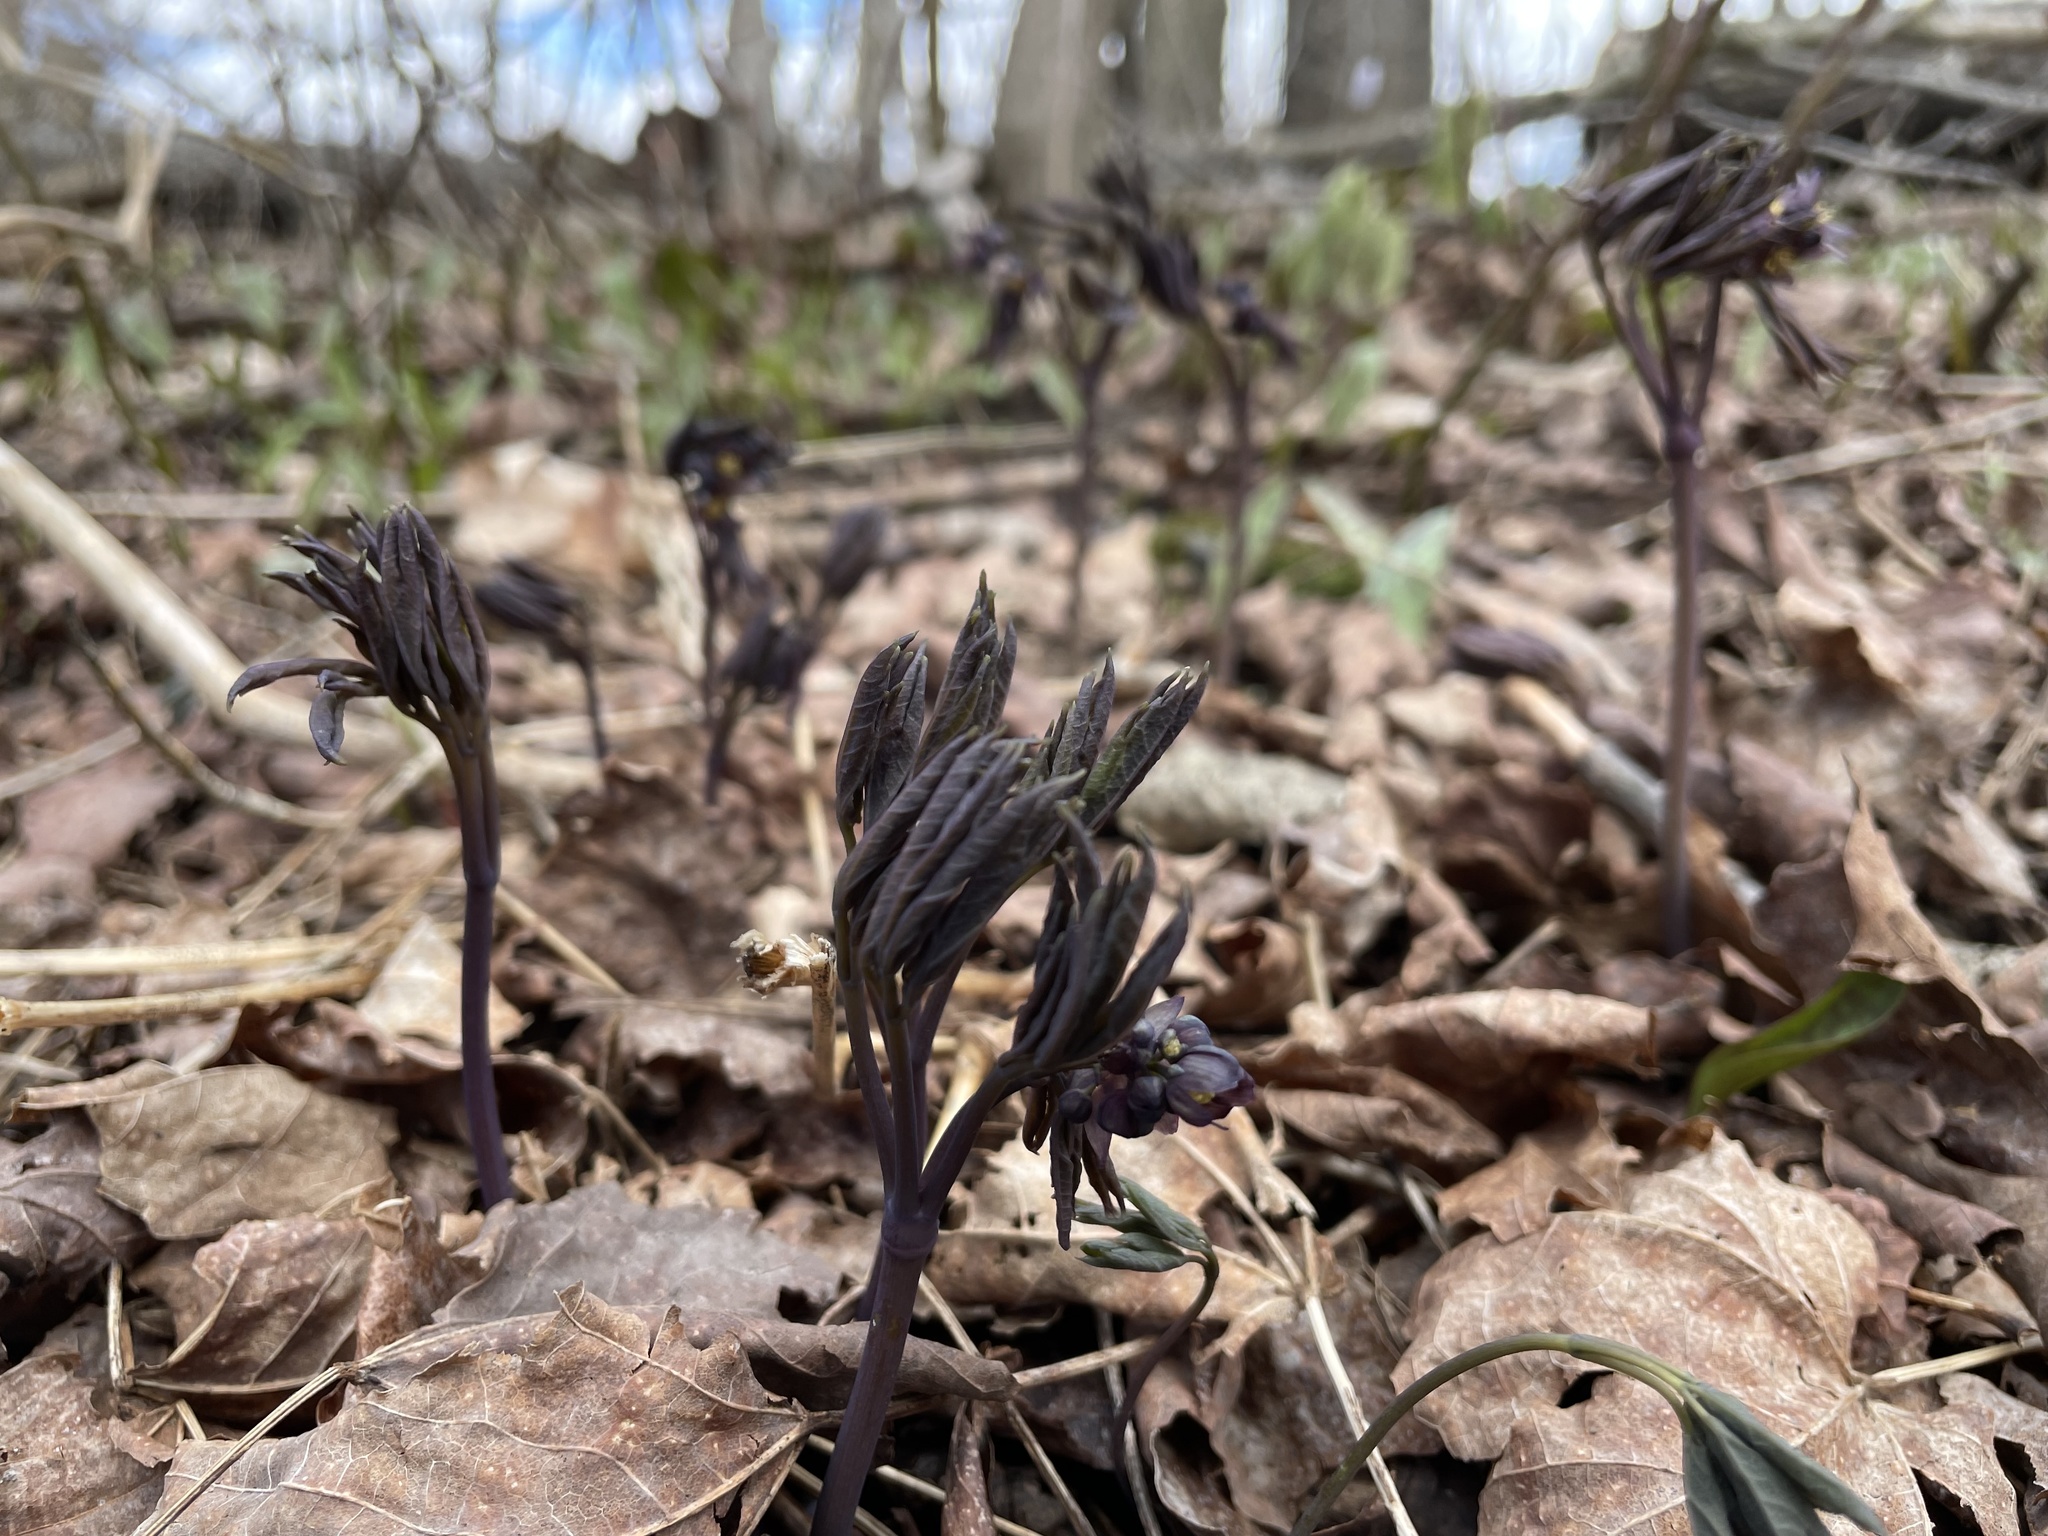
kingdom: Plantae
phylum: Tracheophyta
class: Magnoliopsida
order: Ranunculales
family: Berberidaceae
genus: Caulophyllum
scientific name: Caulophyllum giganteum
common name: Blue cohosh
